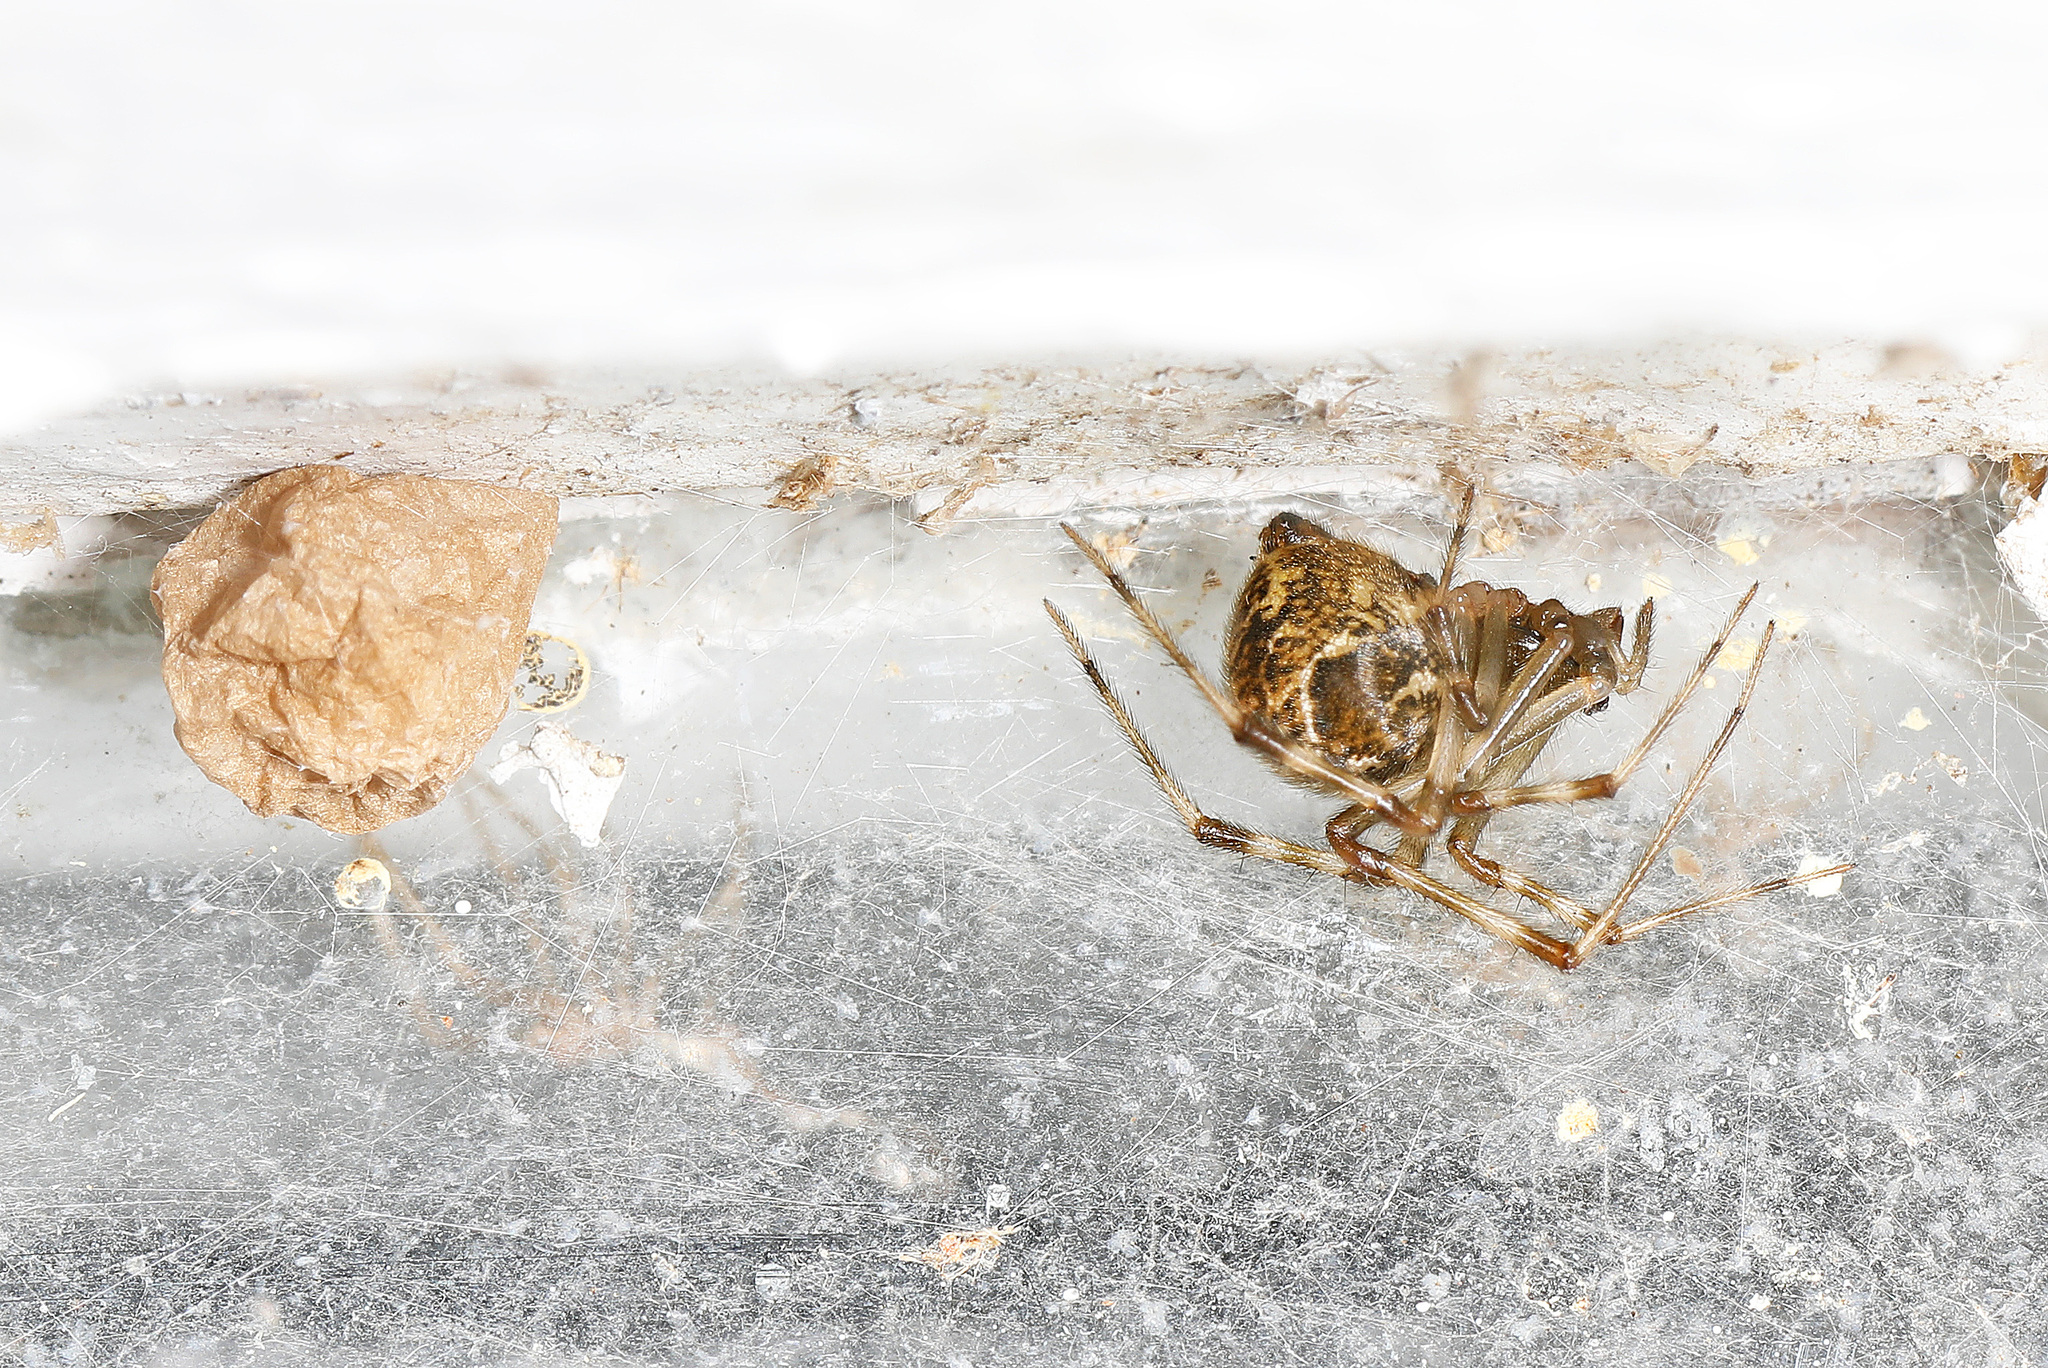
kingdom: Animalia
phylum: Arthropoda
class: Arachnida
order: Araneae
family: Theridiidae
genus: Parasteatoda
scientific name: Parasteatoda tepidariorum
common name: Common house spider
